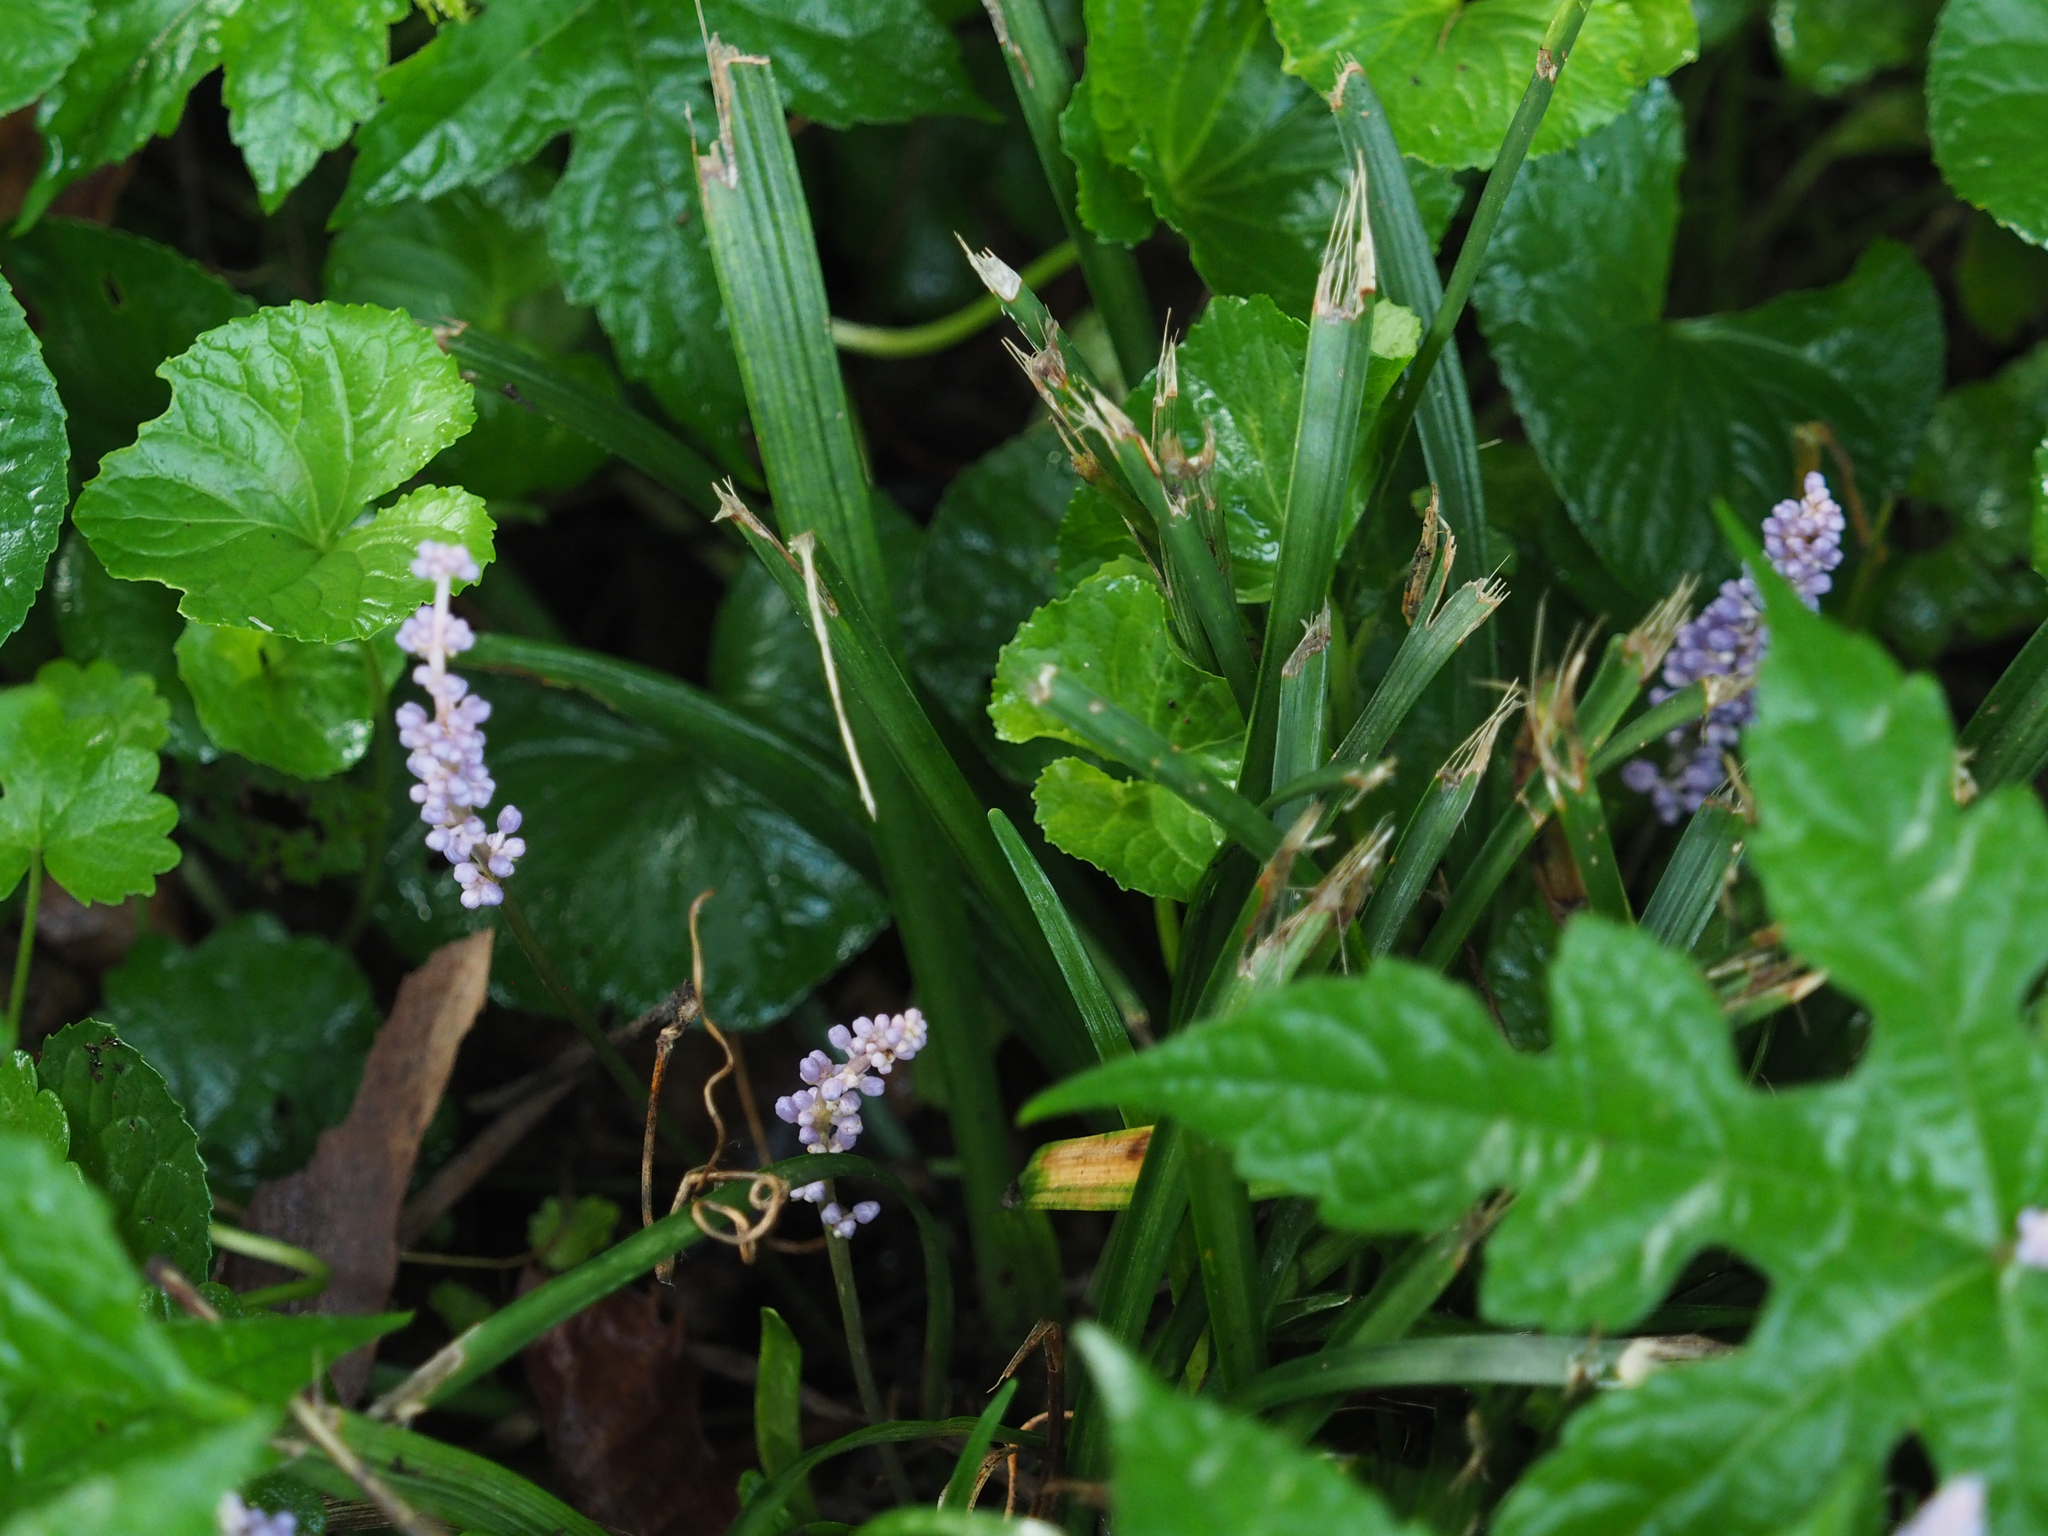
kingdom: Plantae
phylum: Tracheophyta
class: Liliopsida
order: Asparagales
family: Asparagaceae
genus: Liriope
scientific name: Liriope muscari
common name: Big blue lilyturf
